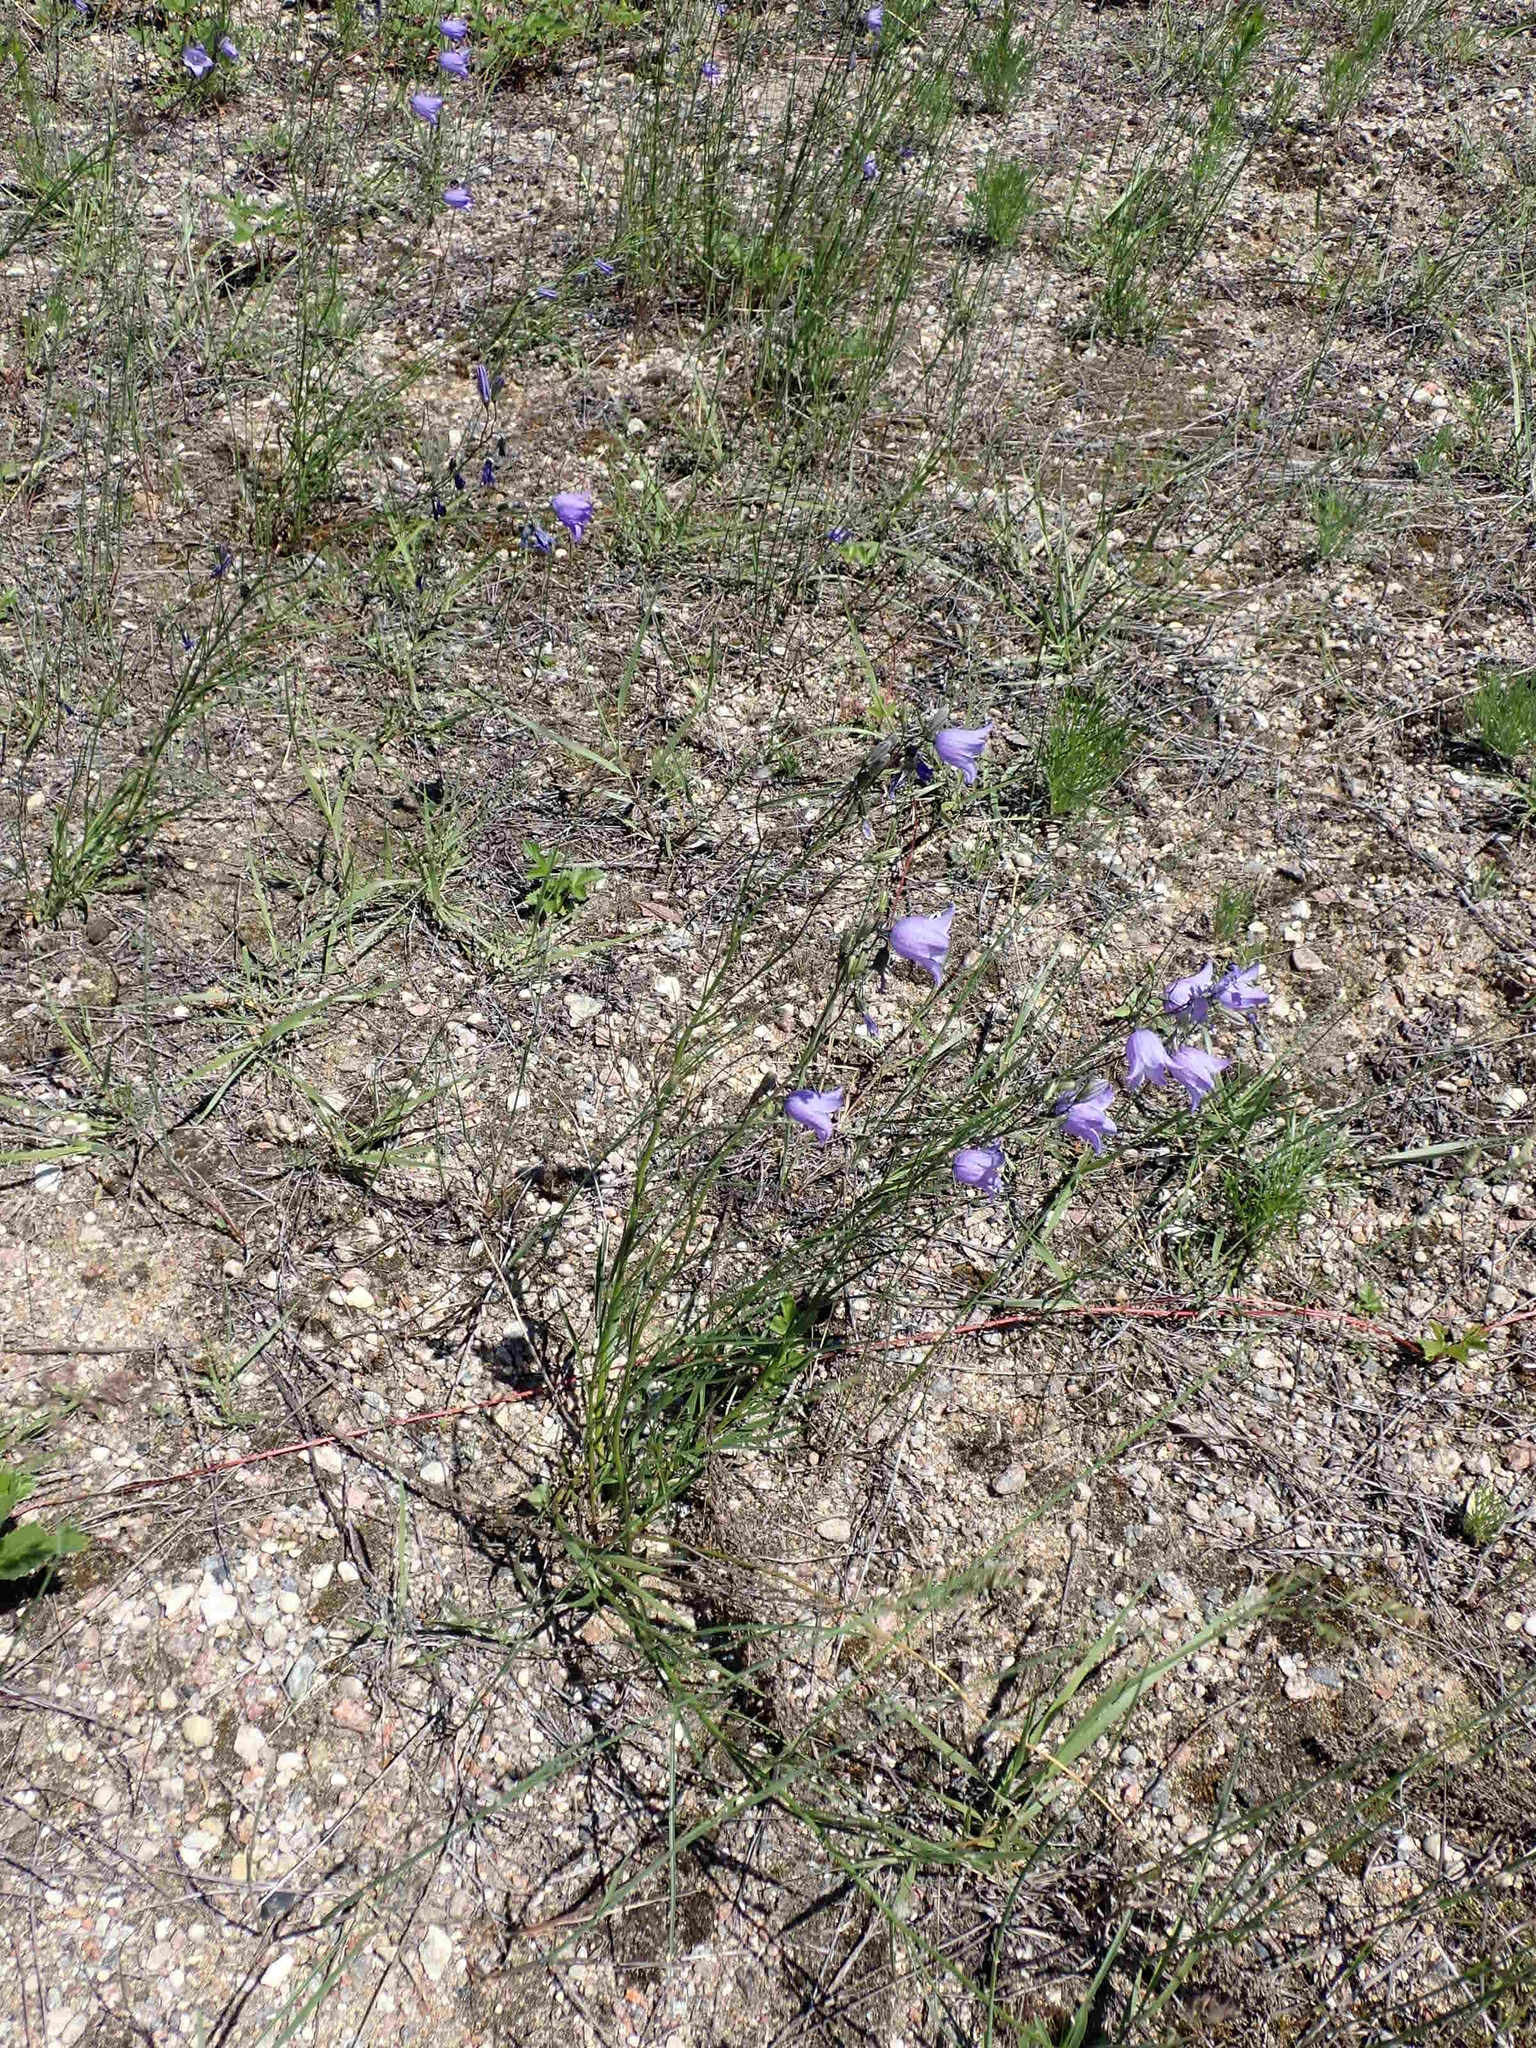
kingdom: Plantae
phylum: Tracheophyta
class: Magnoliopsida
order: Asterales
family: Campanulaceae
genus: Campanula
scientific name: Campanula petiolata
